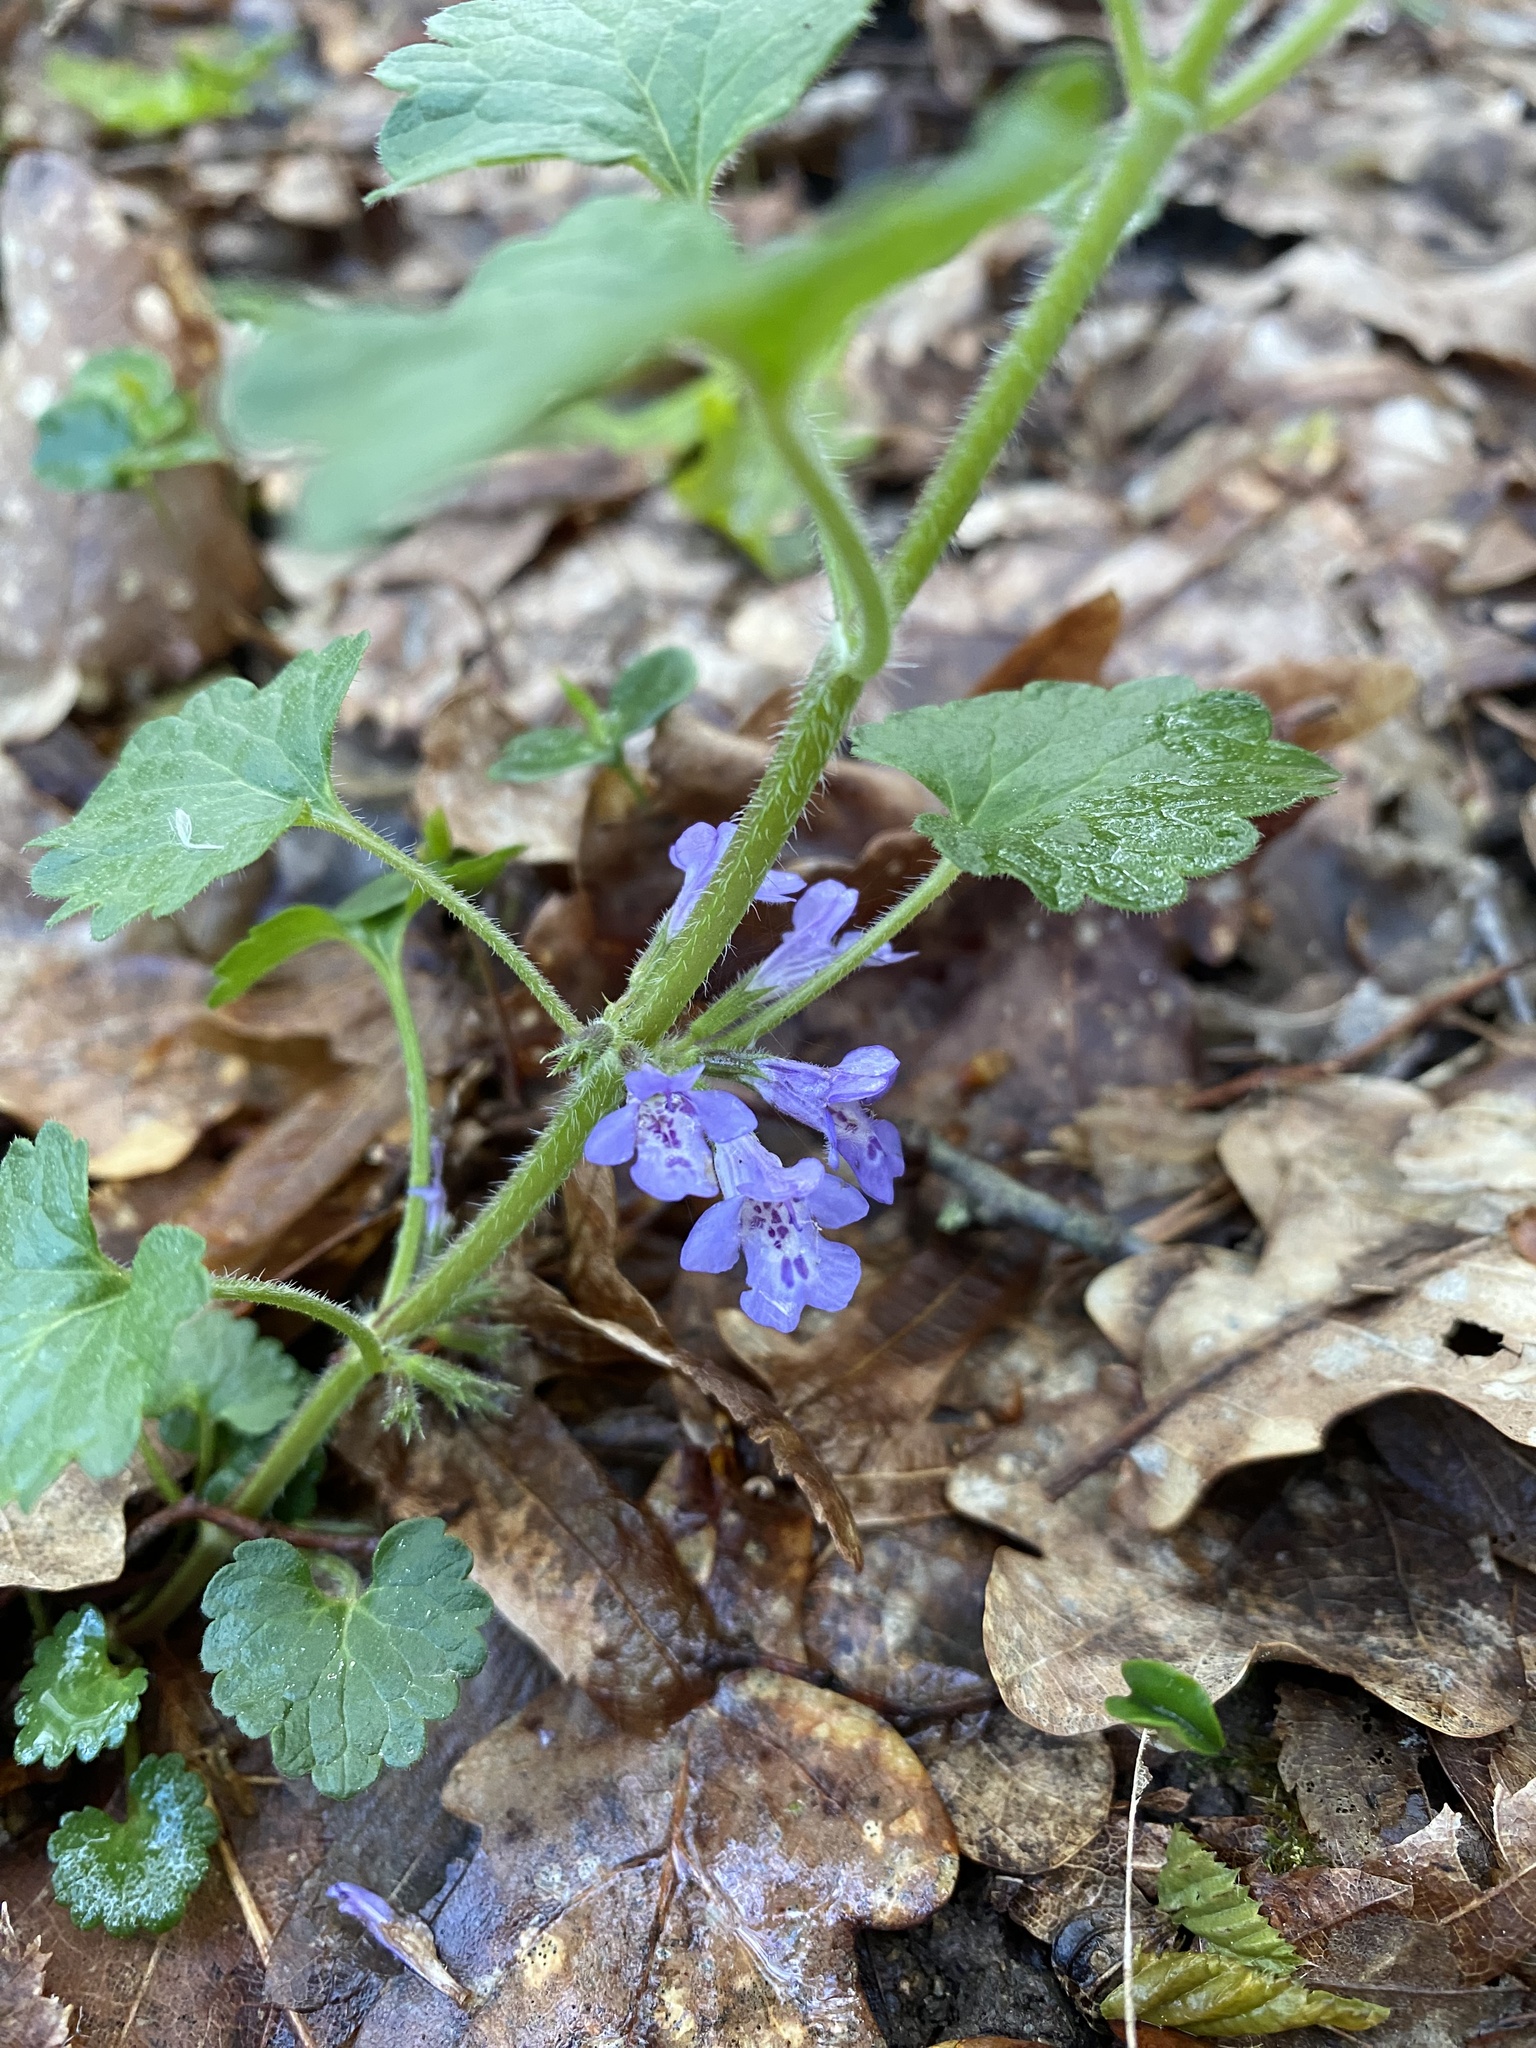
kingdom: Plantae
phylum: Tracheophyta
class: Magnoliopsida
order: Lamiales
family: Lamiaceae
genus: Glechoma
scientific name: Glechoma hederacea
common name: Ground ivy
